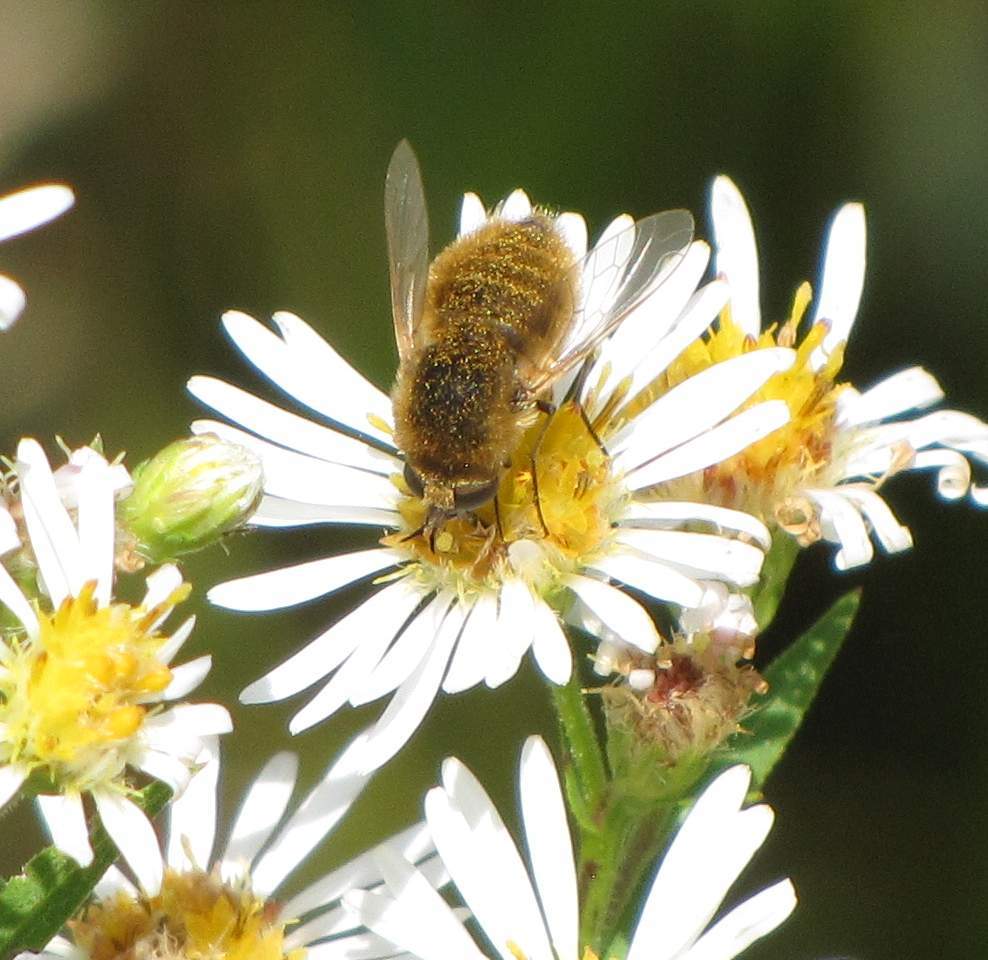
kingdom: Animalia
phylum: Arthropoda
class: Insecta
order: Diptera
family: Bombyliidae
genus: Sparnopolius
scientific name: Sparnopolius confusus
